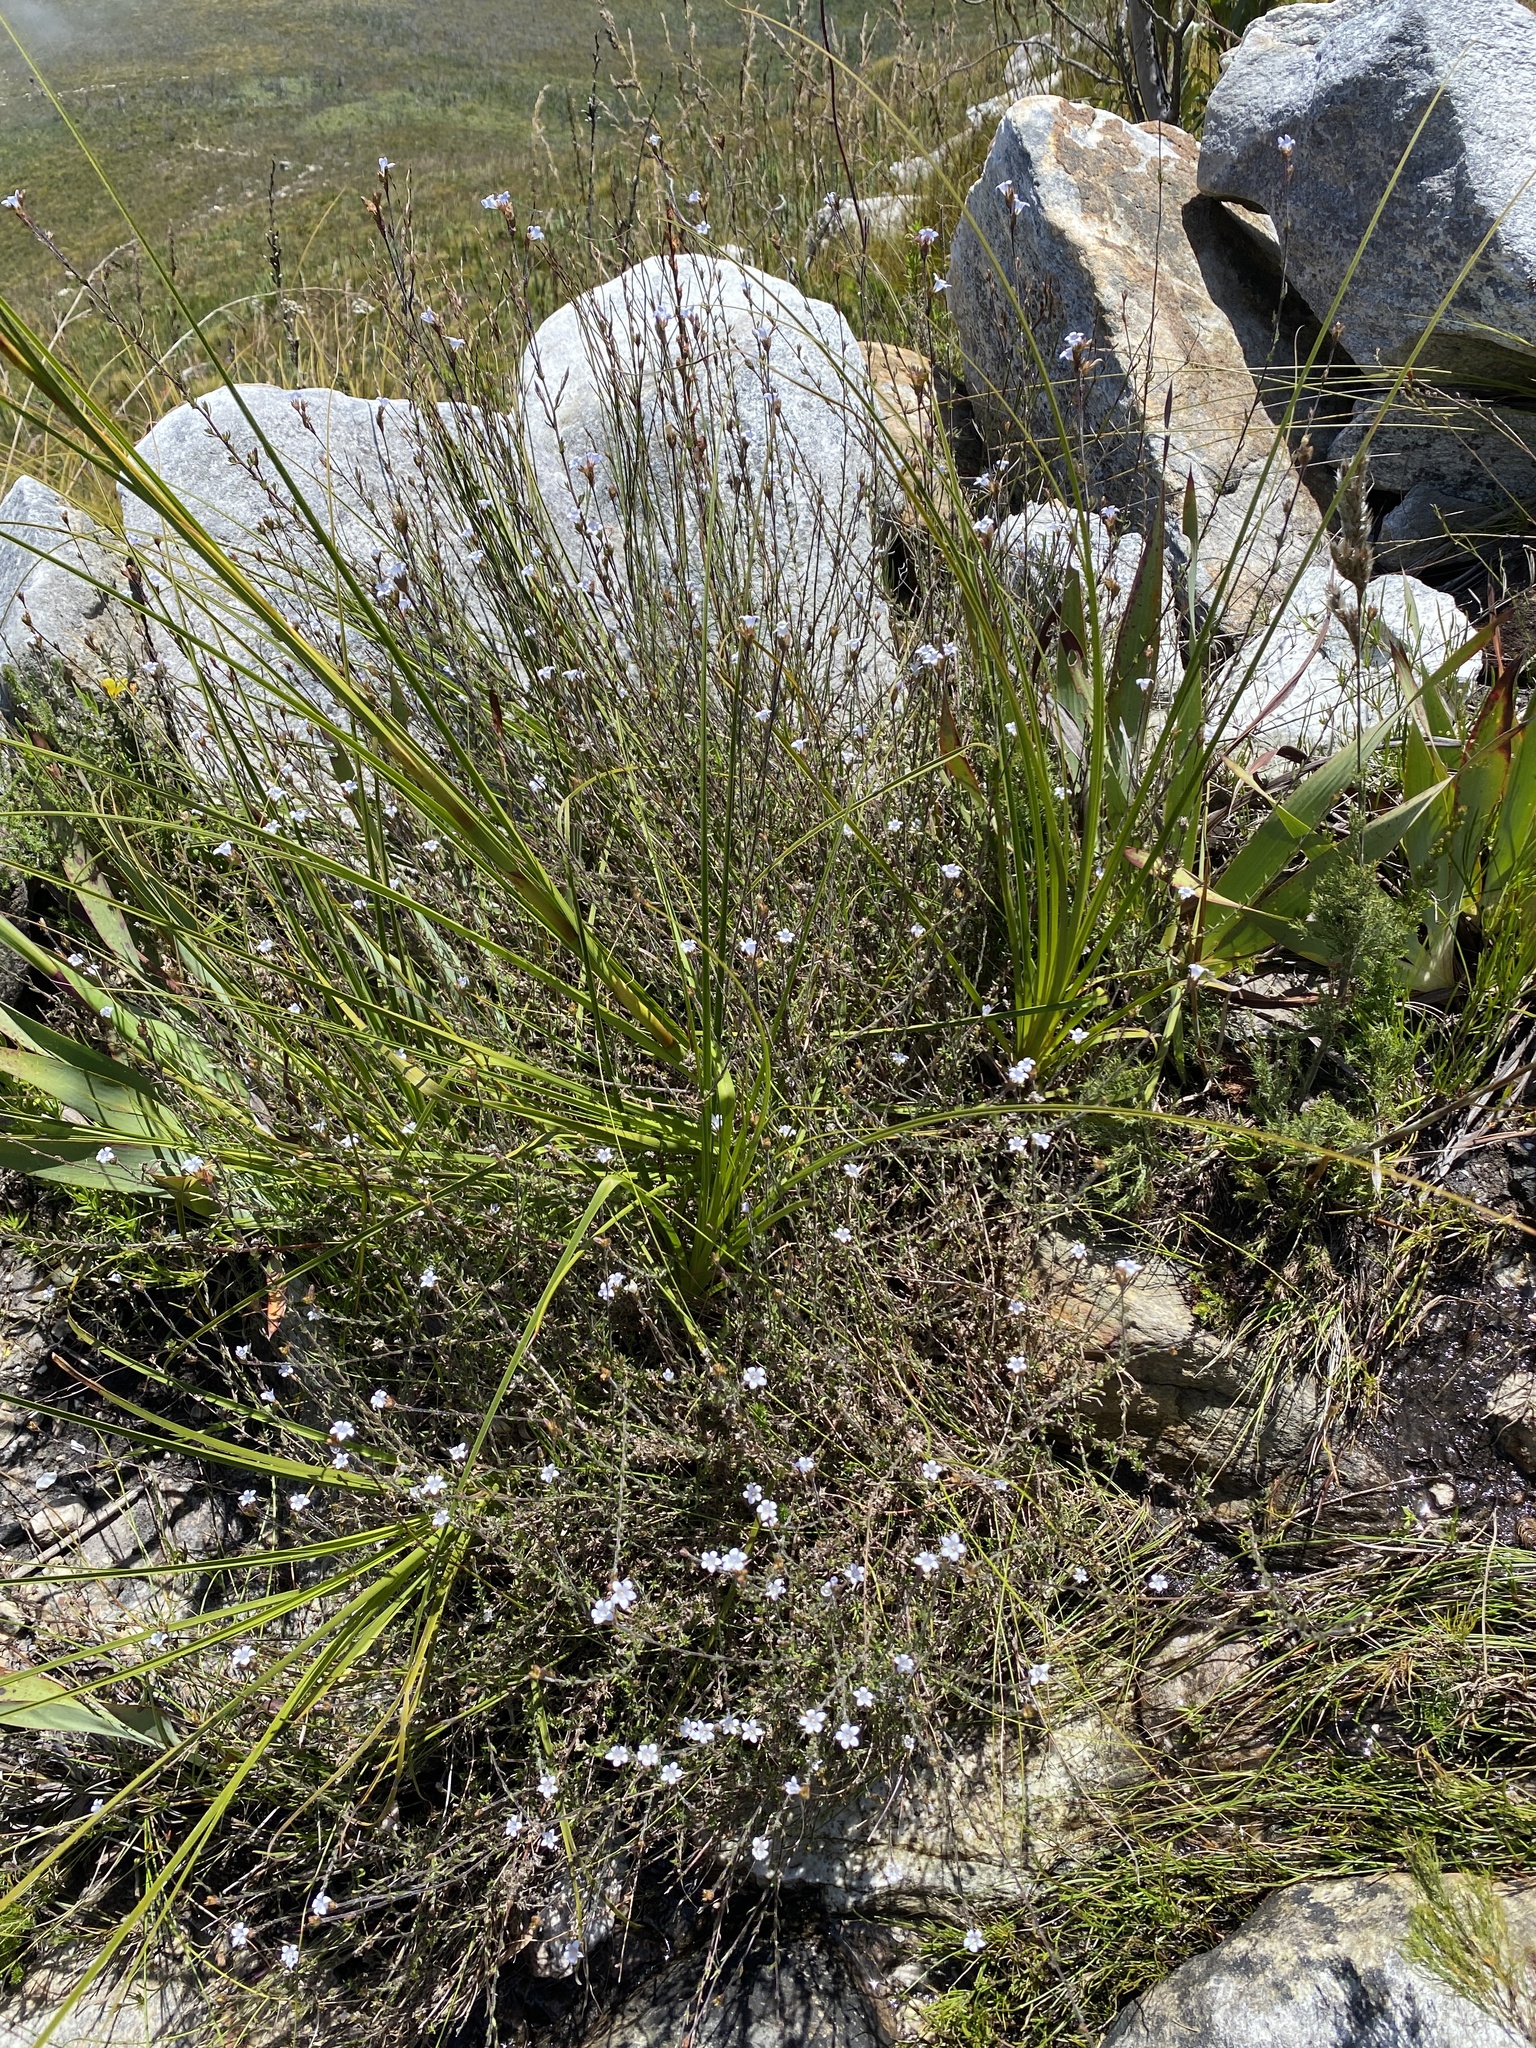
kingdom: Plantae
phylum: Tracheophyta
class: Magnoliopsida
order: Asterales
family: Campanulaceae
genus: Prismatocarpus
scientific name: Prismatocarpus rogersii
